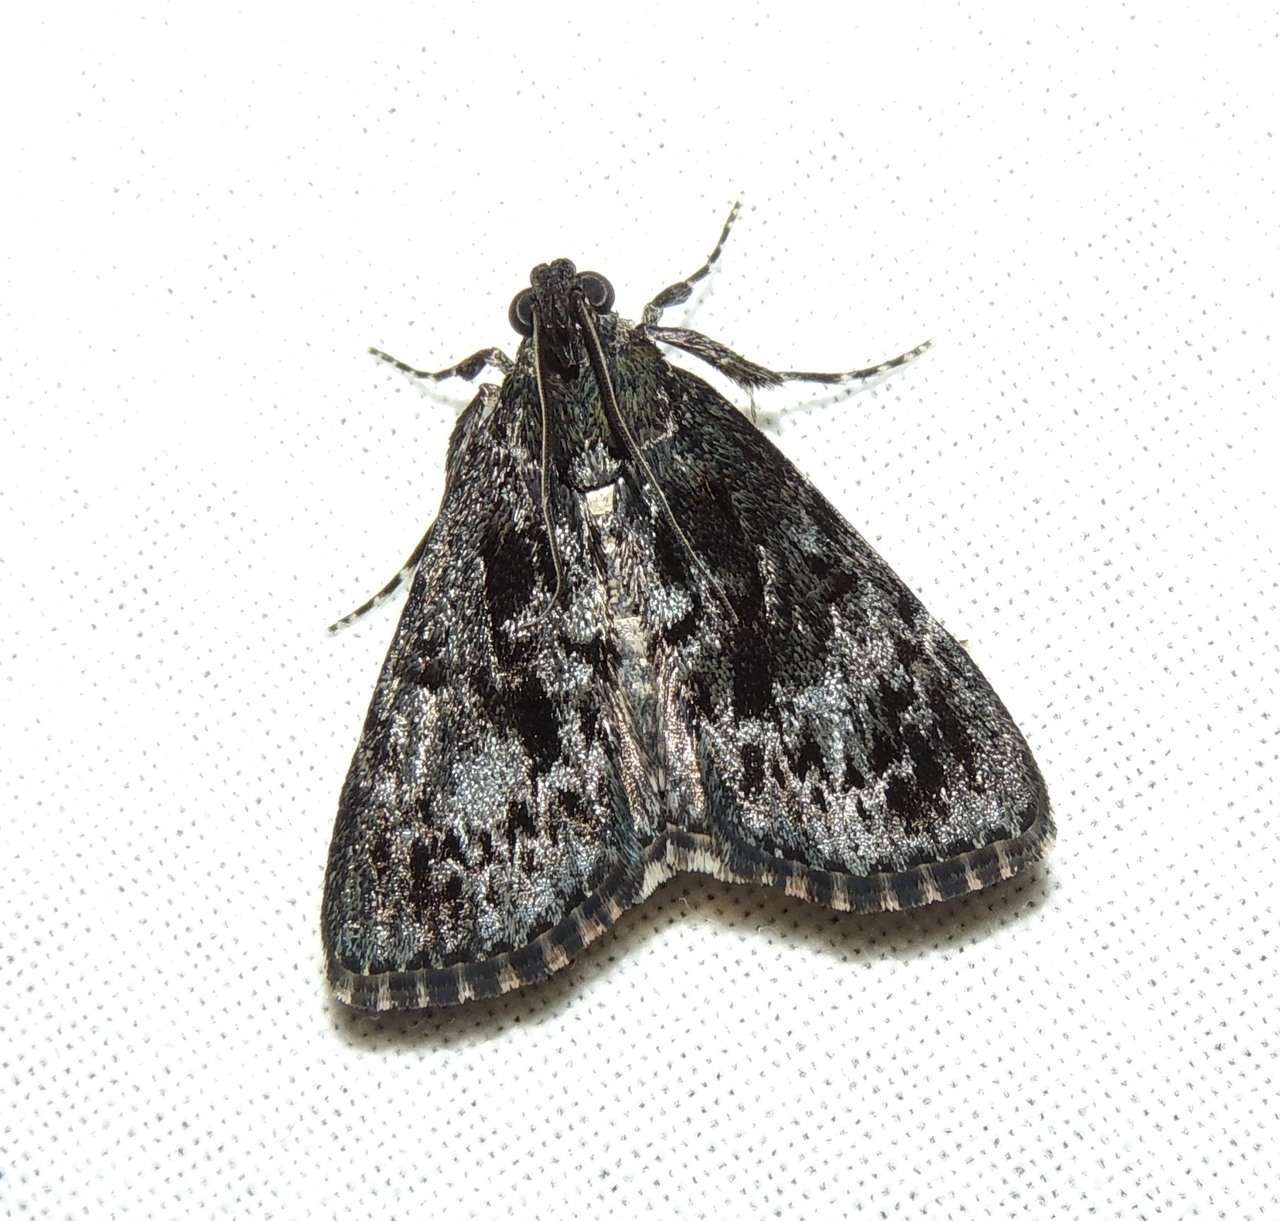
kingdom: Animalia
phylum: Arthropoda
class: Insecta
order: Lepidoptera
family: Pyralidae
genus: Salma
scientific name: Salma ebenina
